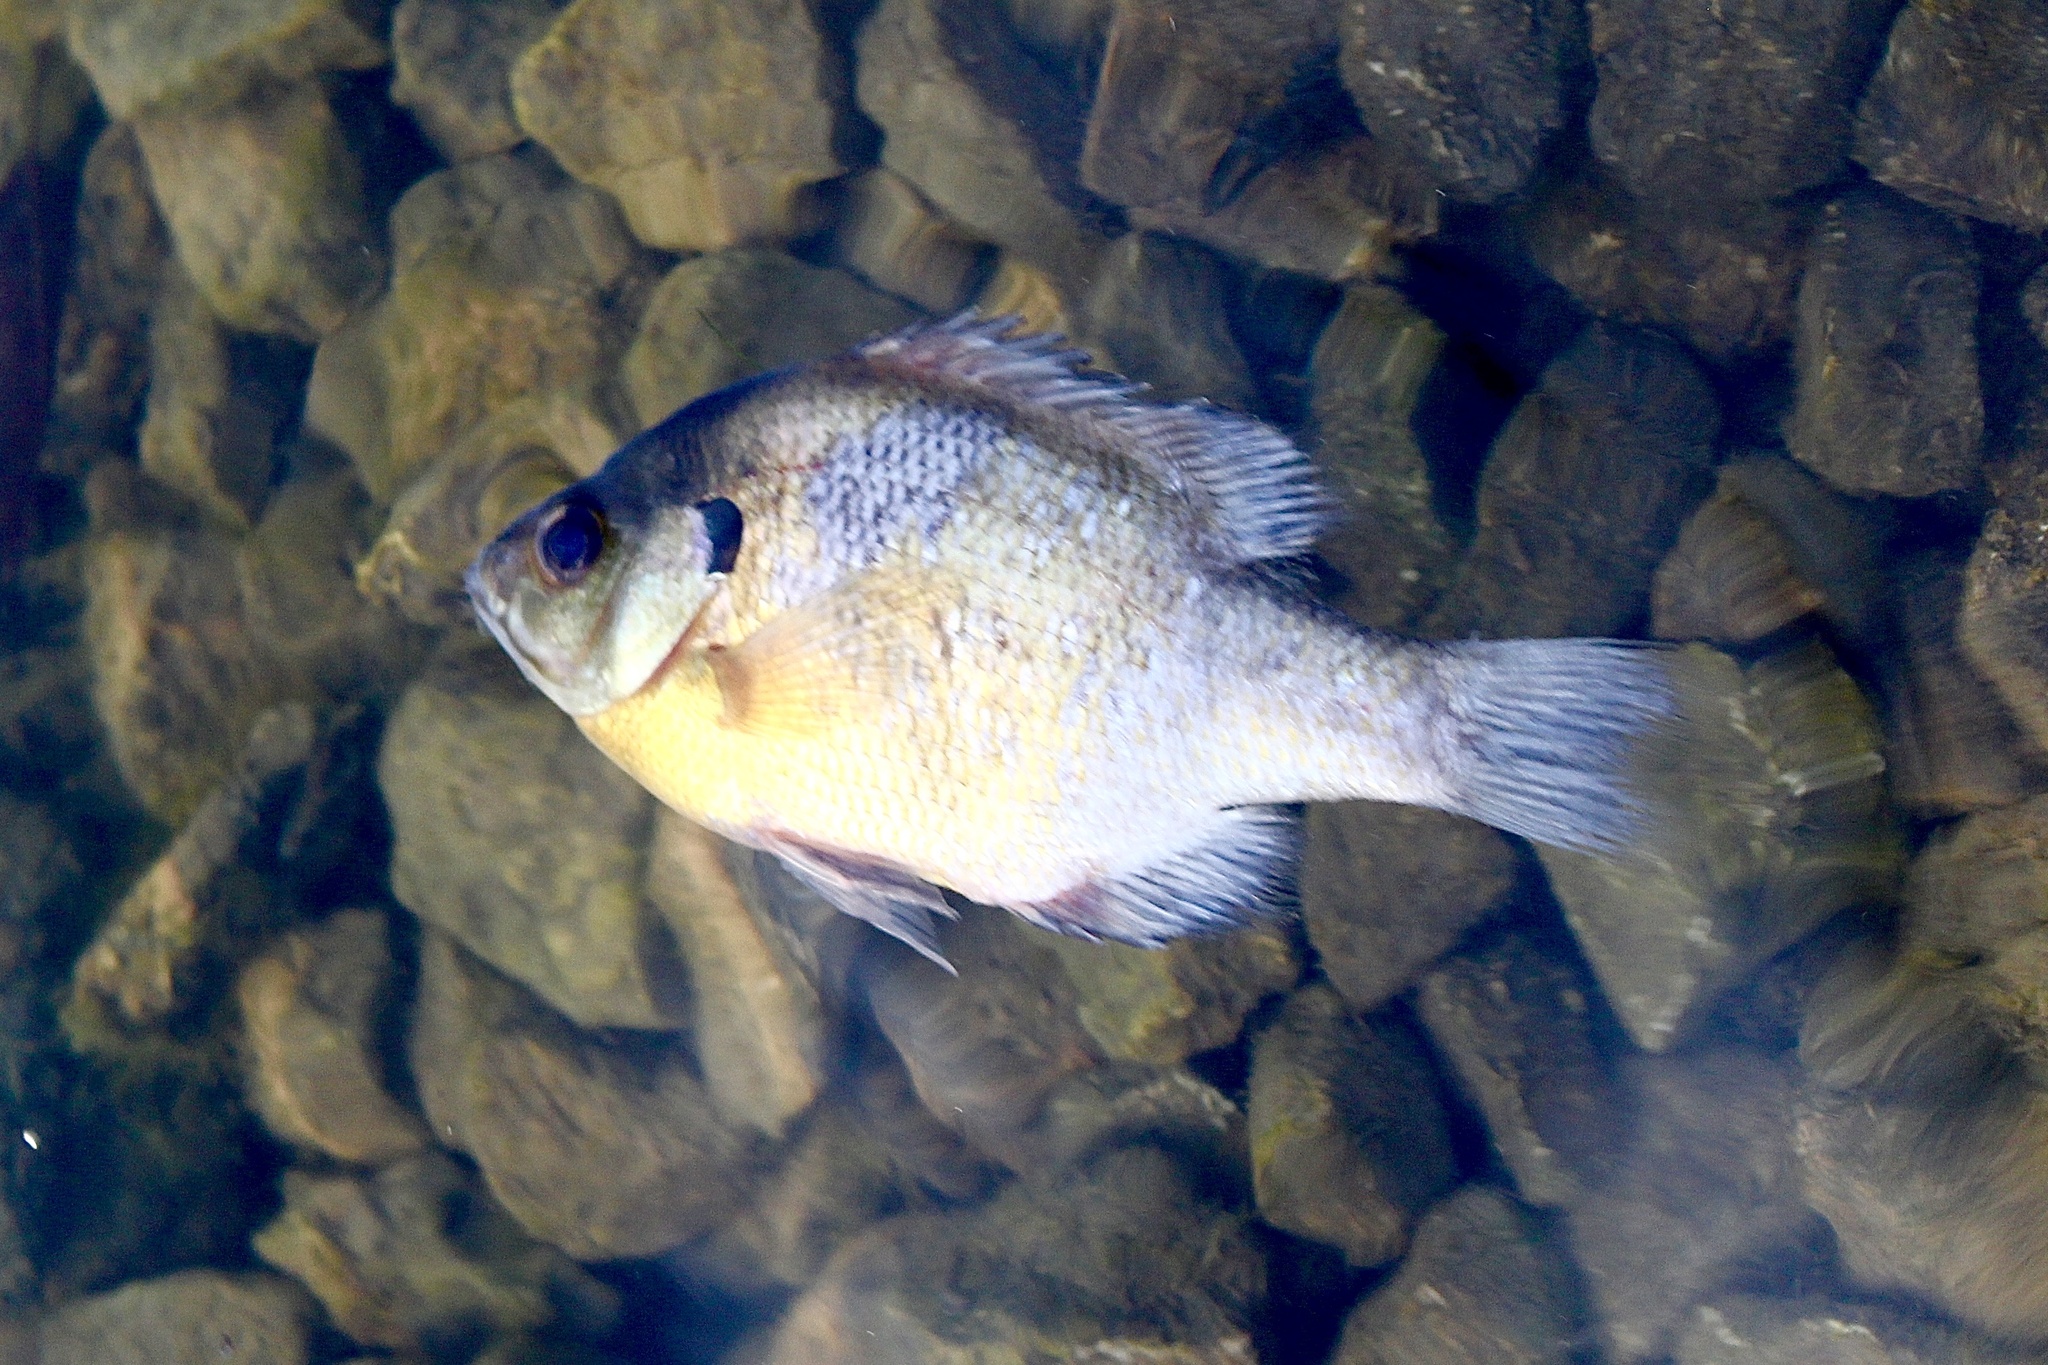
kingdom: Animalia
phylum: Chordata
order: Perciformes
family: Centrarchidae
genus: Lepomis
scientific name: Lepomis macrochirus
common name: Bluegill
